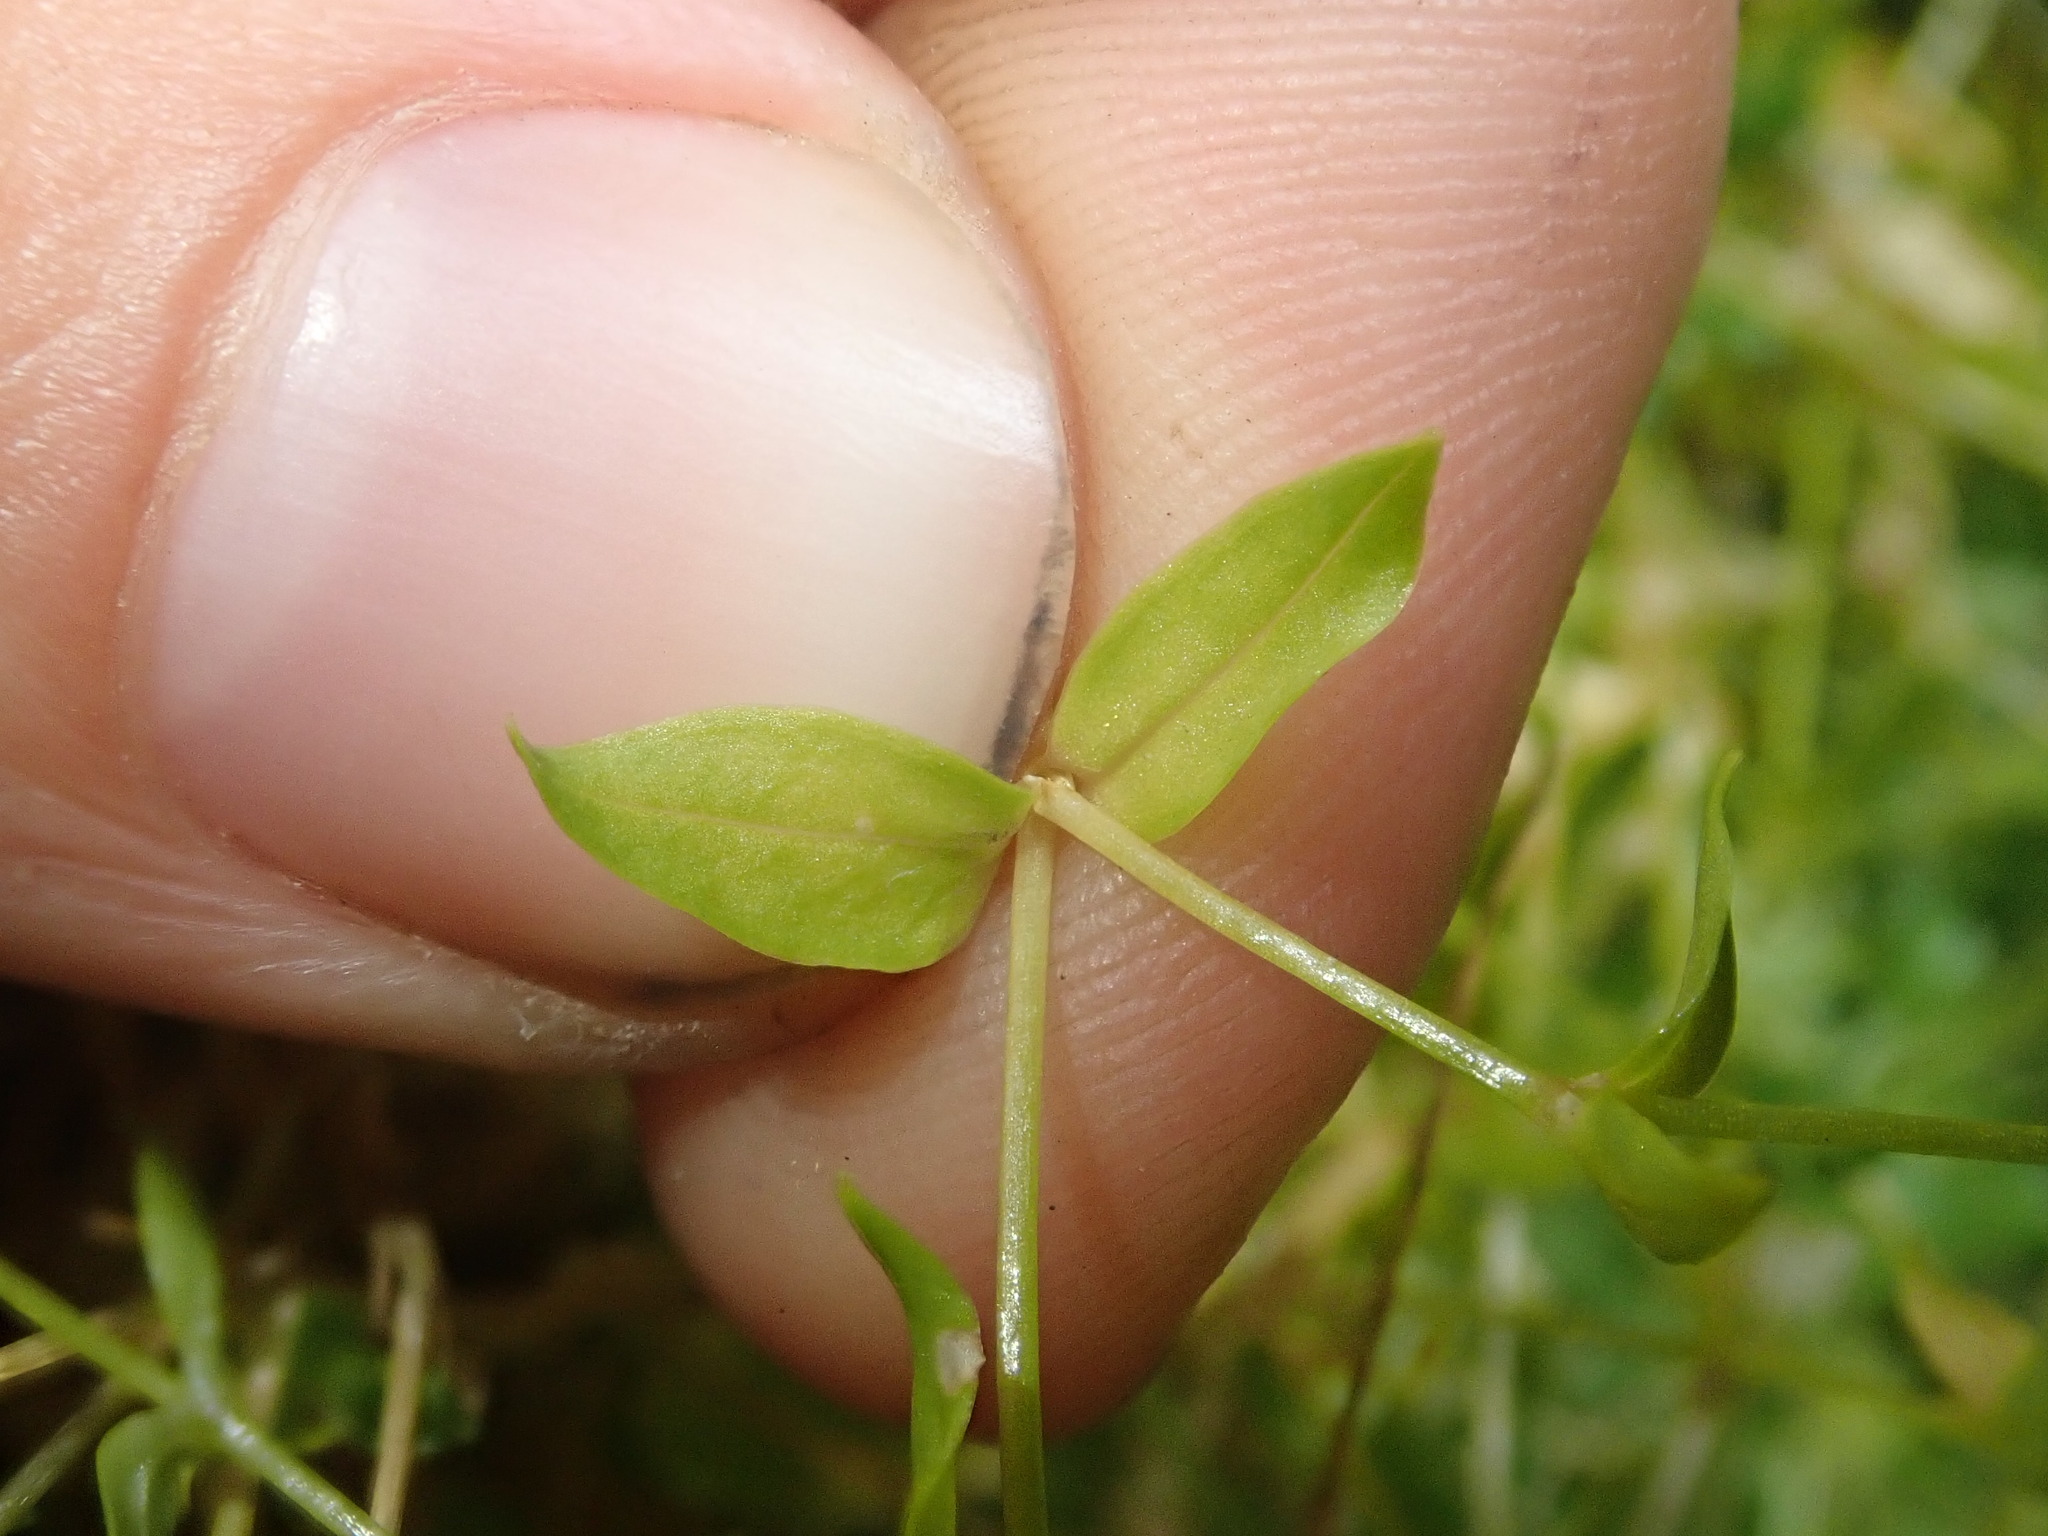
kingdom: Plantae
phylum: Tracheophyta
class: Magnoliopsida
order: Caryophyllales
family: Caryophyllaceae
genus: Stellaria
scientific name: Stellaria crispa
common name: Crimped stitchwort
